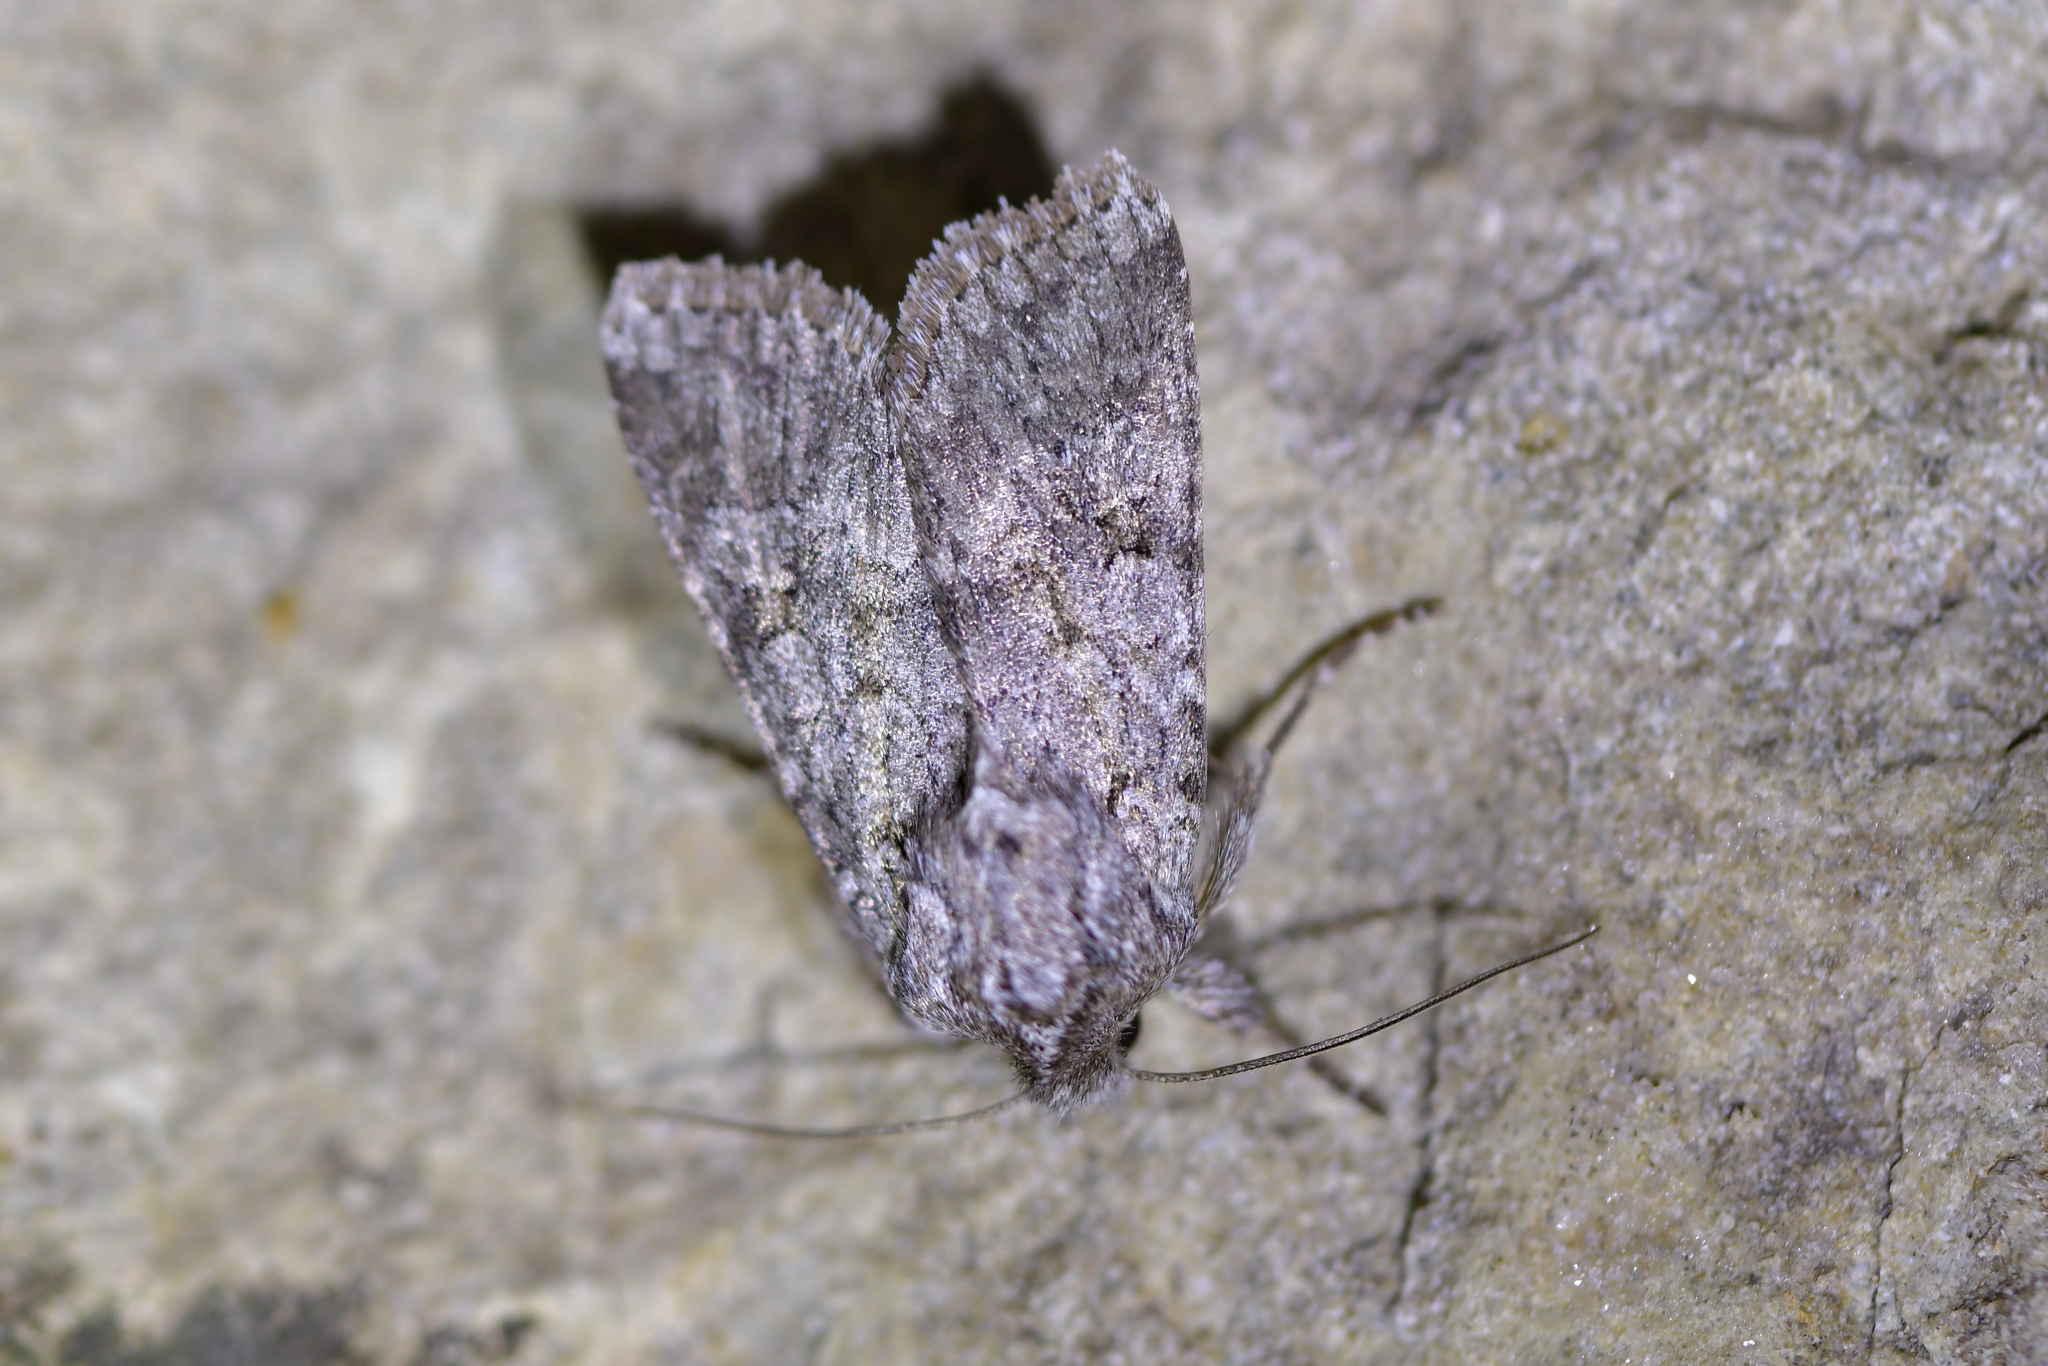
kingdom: Animalia
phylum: Arthropoda
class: Insecta
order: Lepidoptera
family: Noctuidae
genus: Physetica
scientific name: Physetica cucullina
